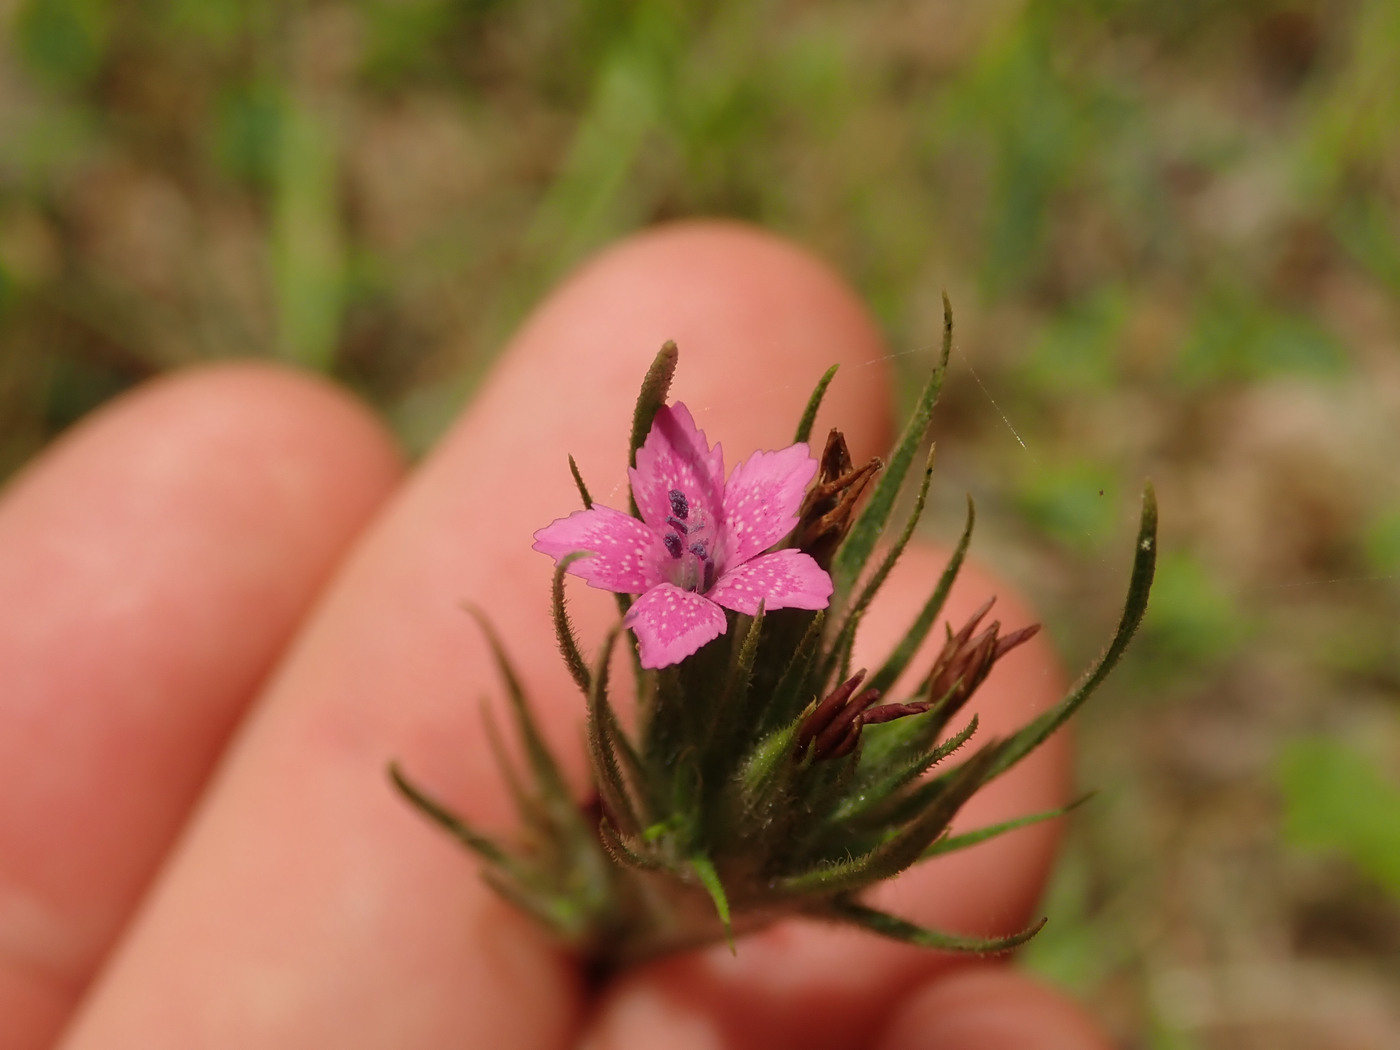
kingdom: Plantae
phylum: Tracheophyta
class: Magnoliopsida
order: Caryophyllales
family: Caryophyllaceae
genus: Dianthus
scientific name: Dianthus armeria
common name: Deptford pink
